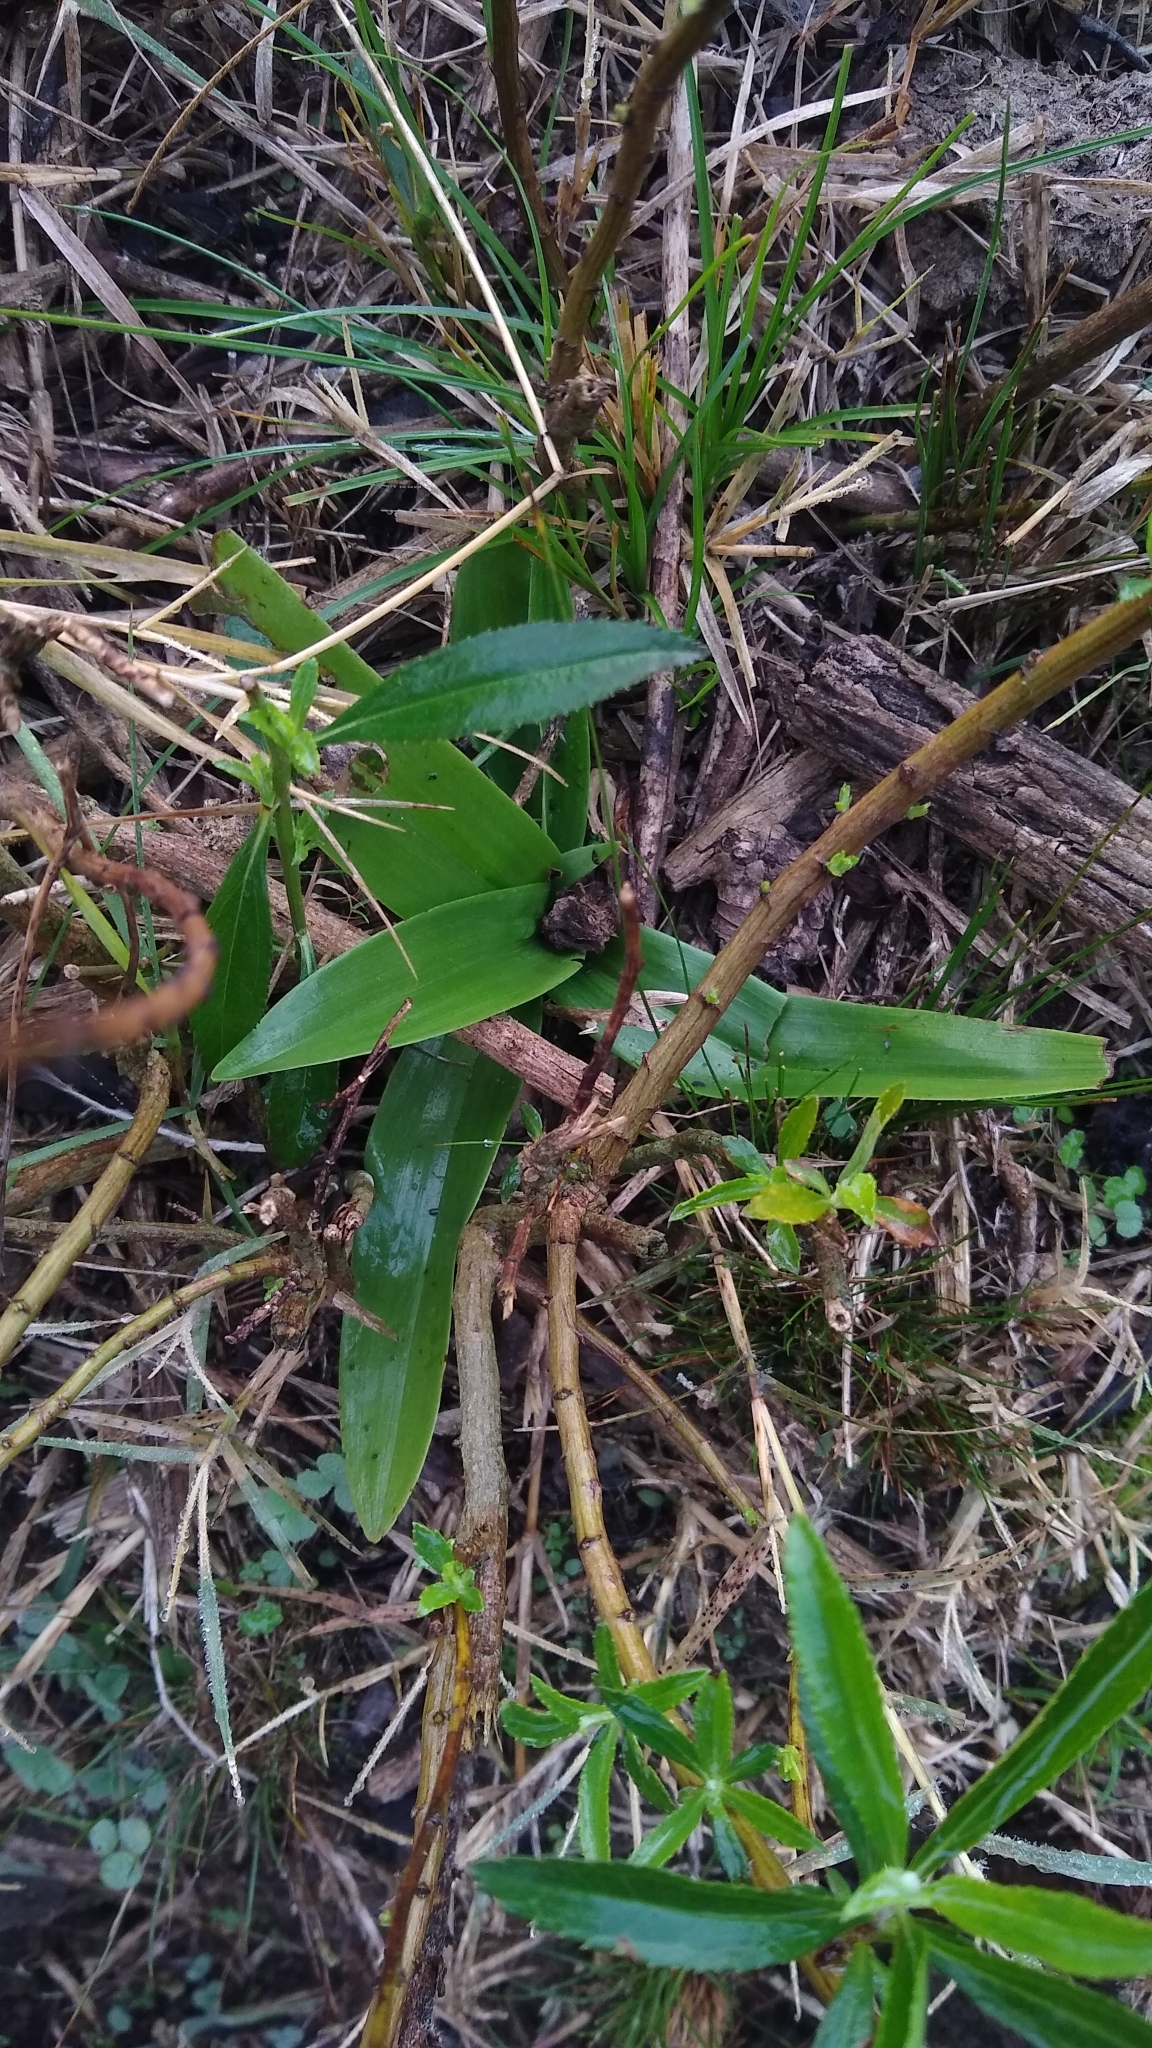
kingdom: Plantae
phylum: Tracheophyta
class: Liliopsida
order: Asparagales
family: Orchidaceae
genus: Chloraea
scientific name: Chloraea membranacea
